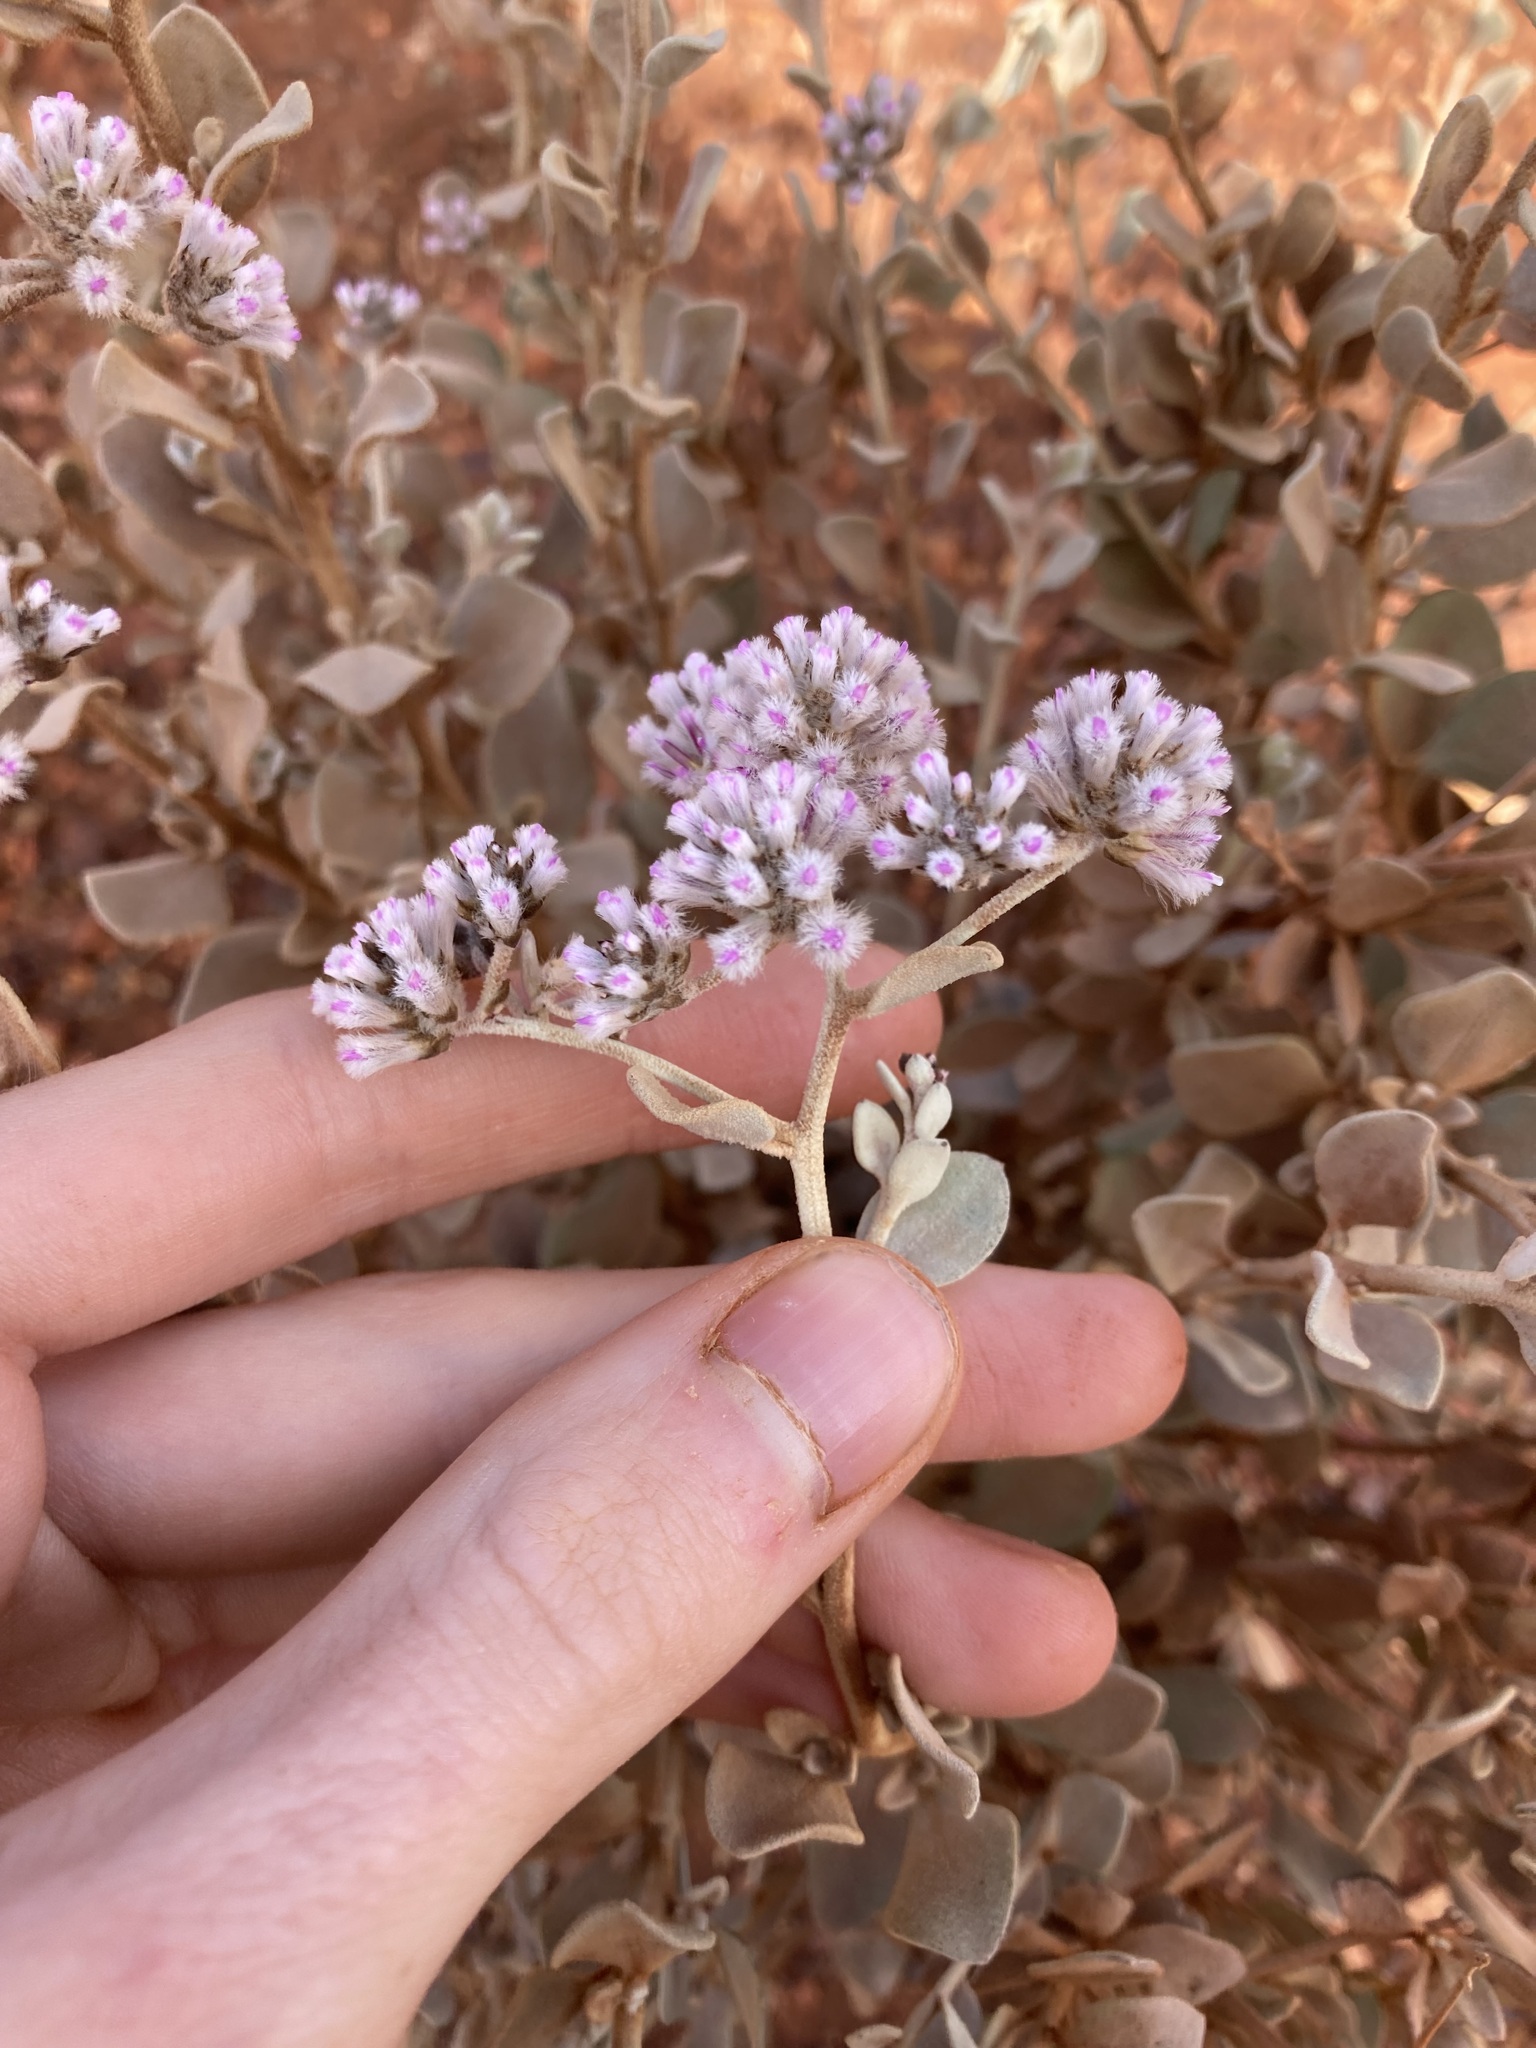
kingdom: Plantae
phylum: Tracheophyta
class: Magnoliopsida
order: Caryophyllales
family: Amaranthaceae
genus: Ptilotus
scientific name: Ptilotus obovatus
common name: Cottonbush
